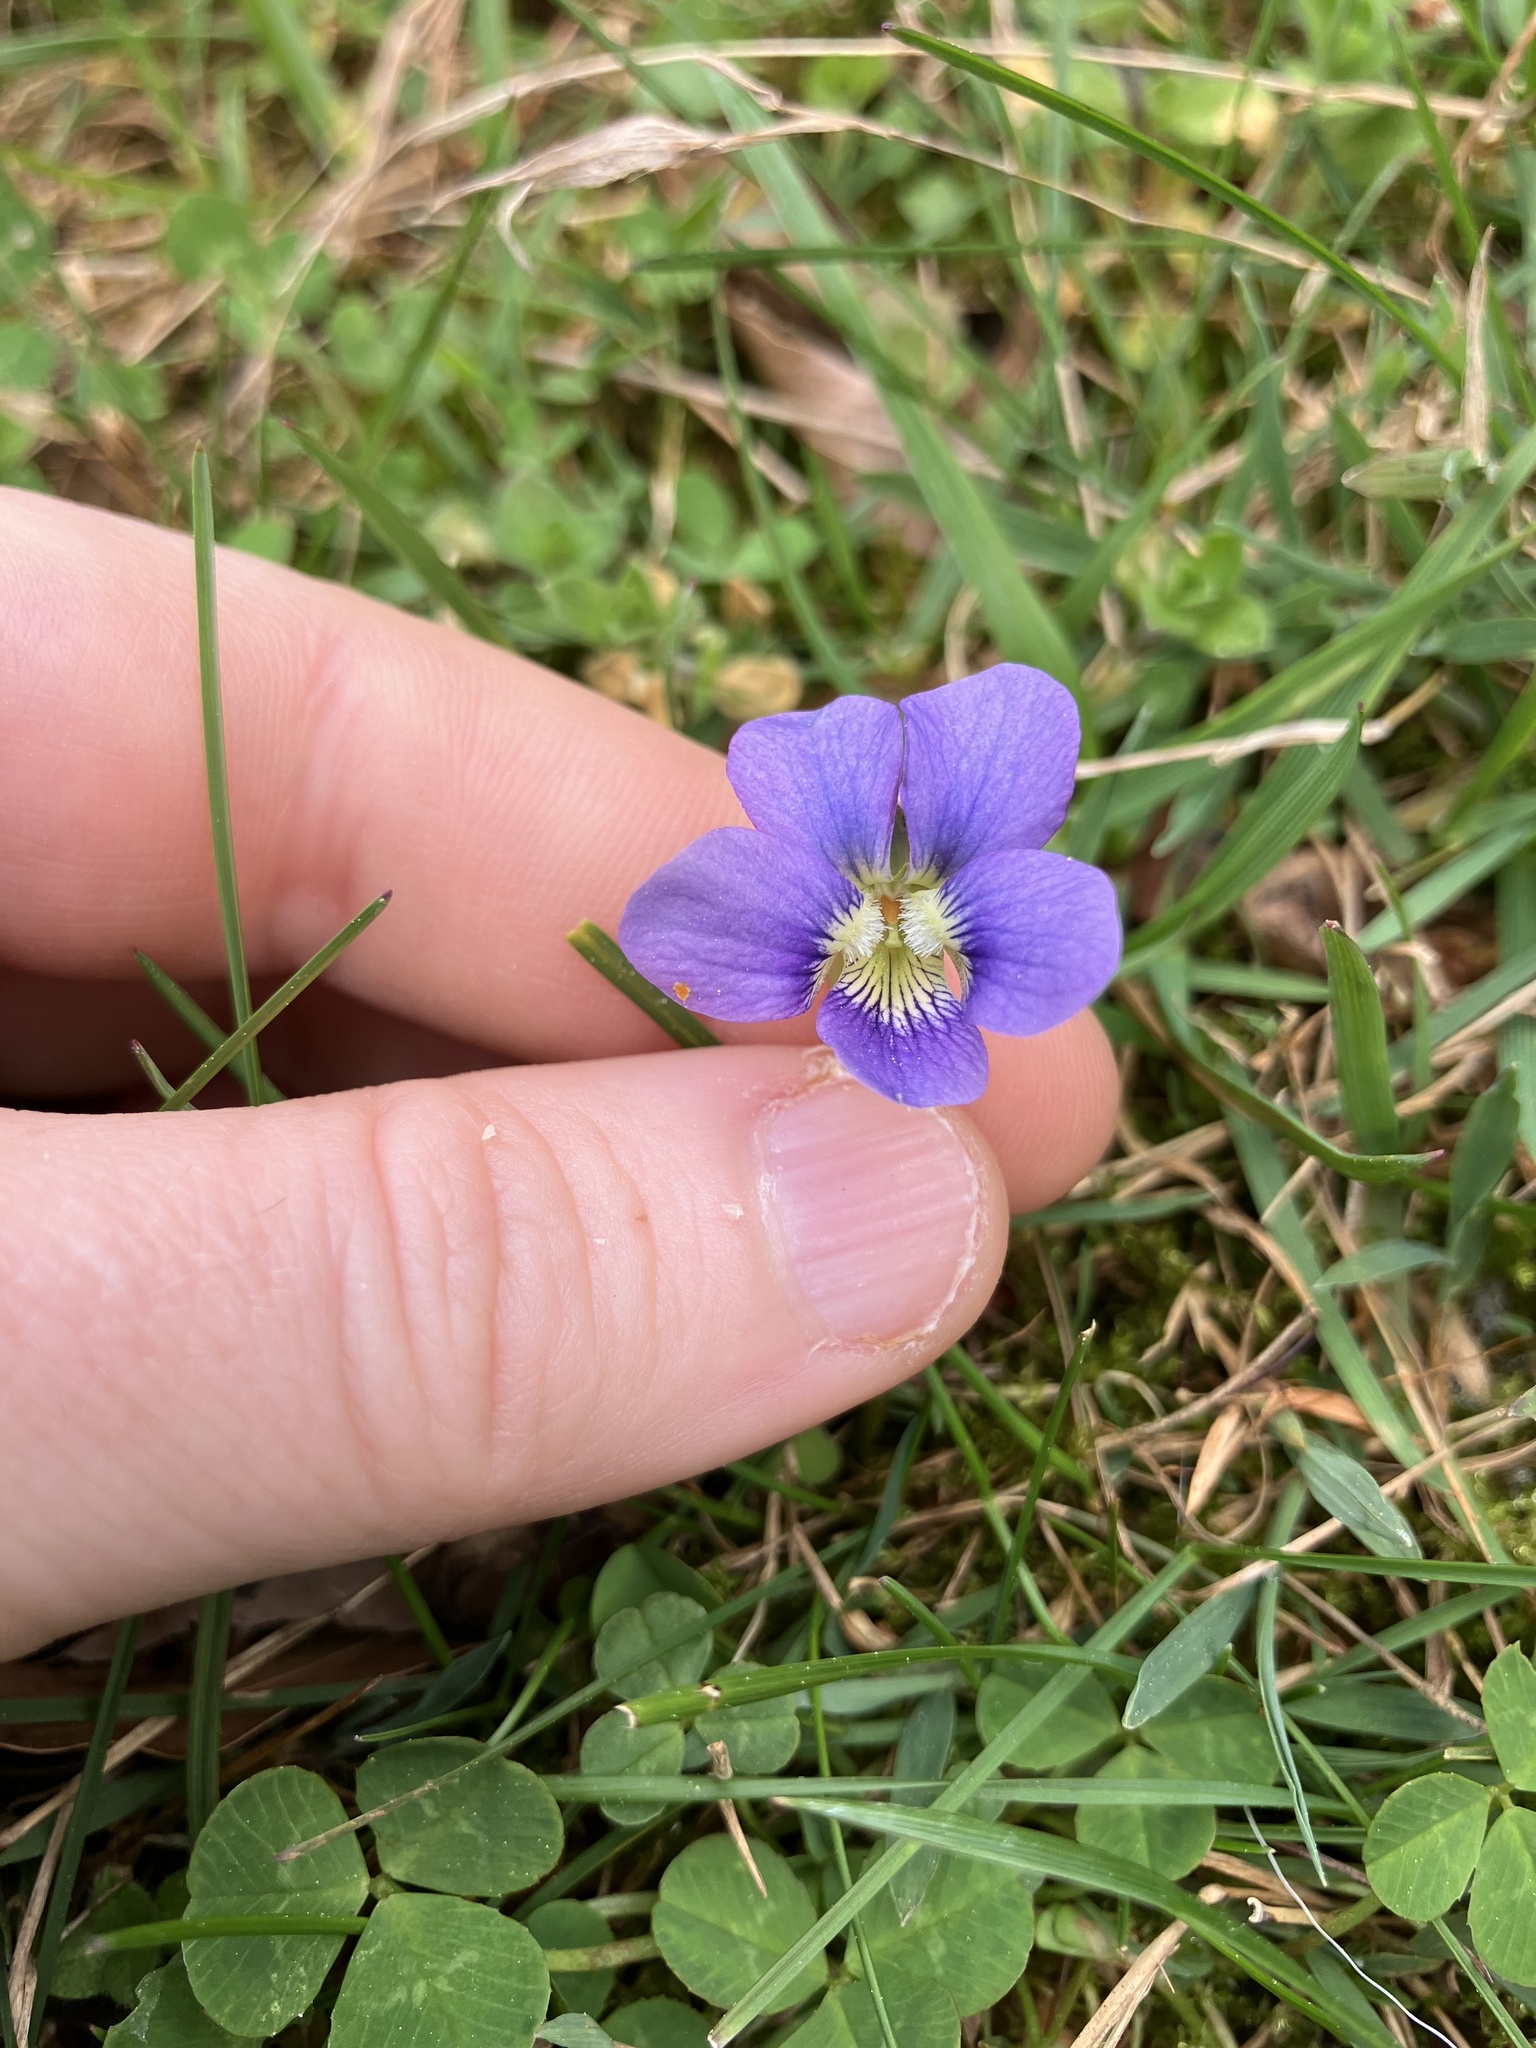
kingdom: Plantae
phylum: Tracheophyta
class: Magnoliopsida
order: Malpighiales
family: Violaceae
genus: Viola
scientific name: Viola cucullata
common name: Marsh blue violet
